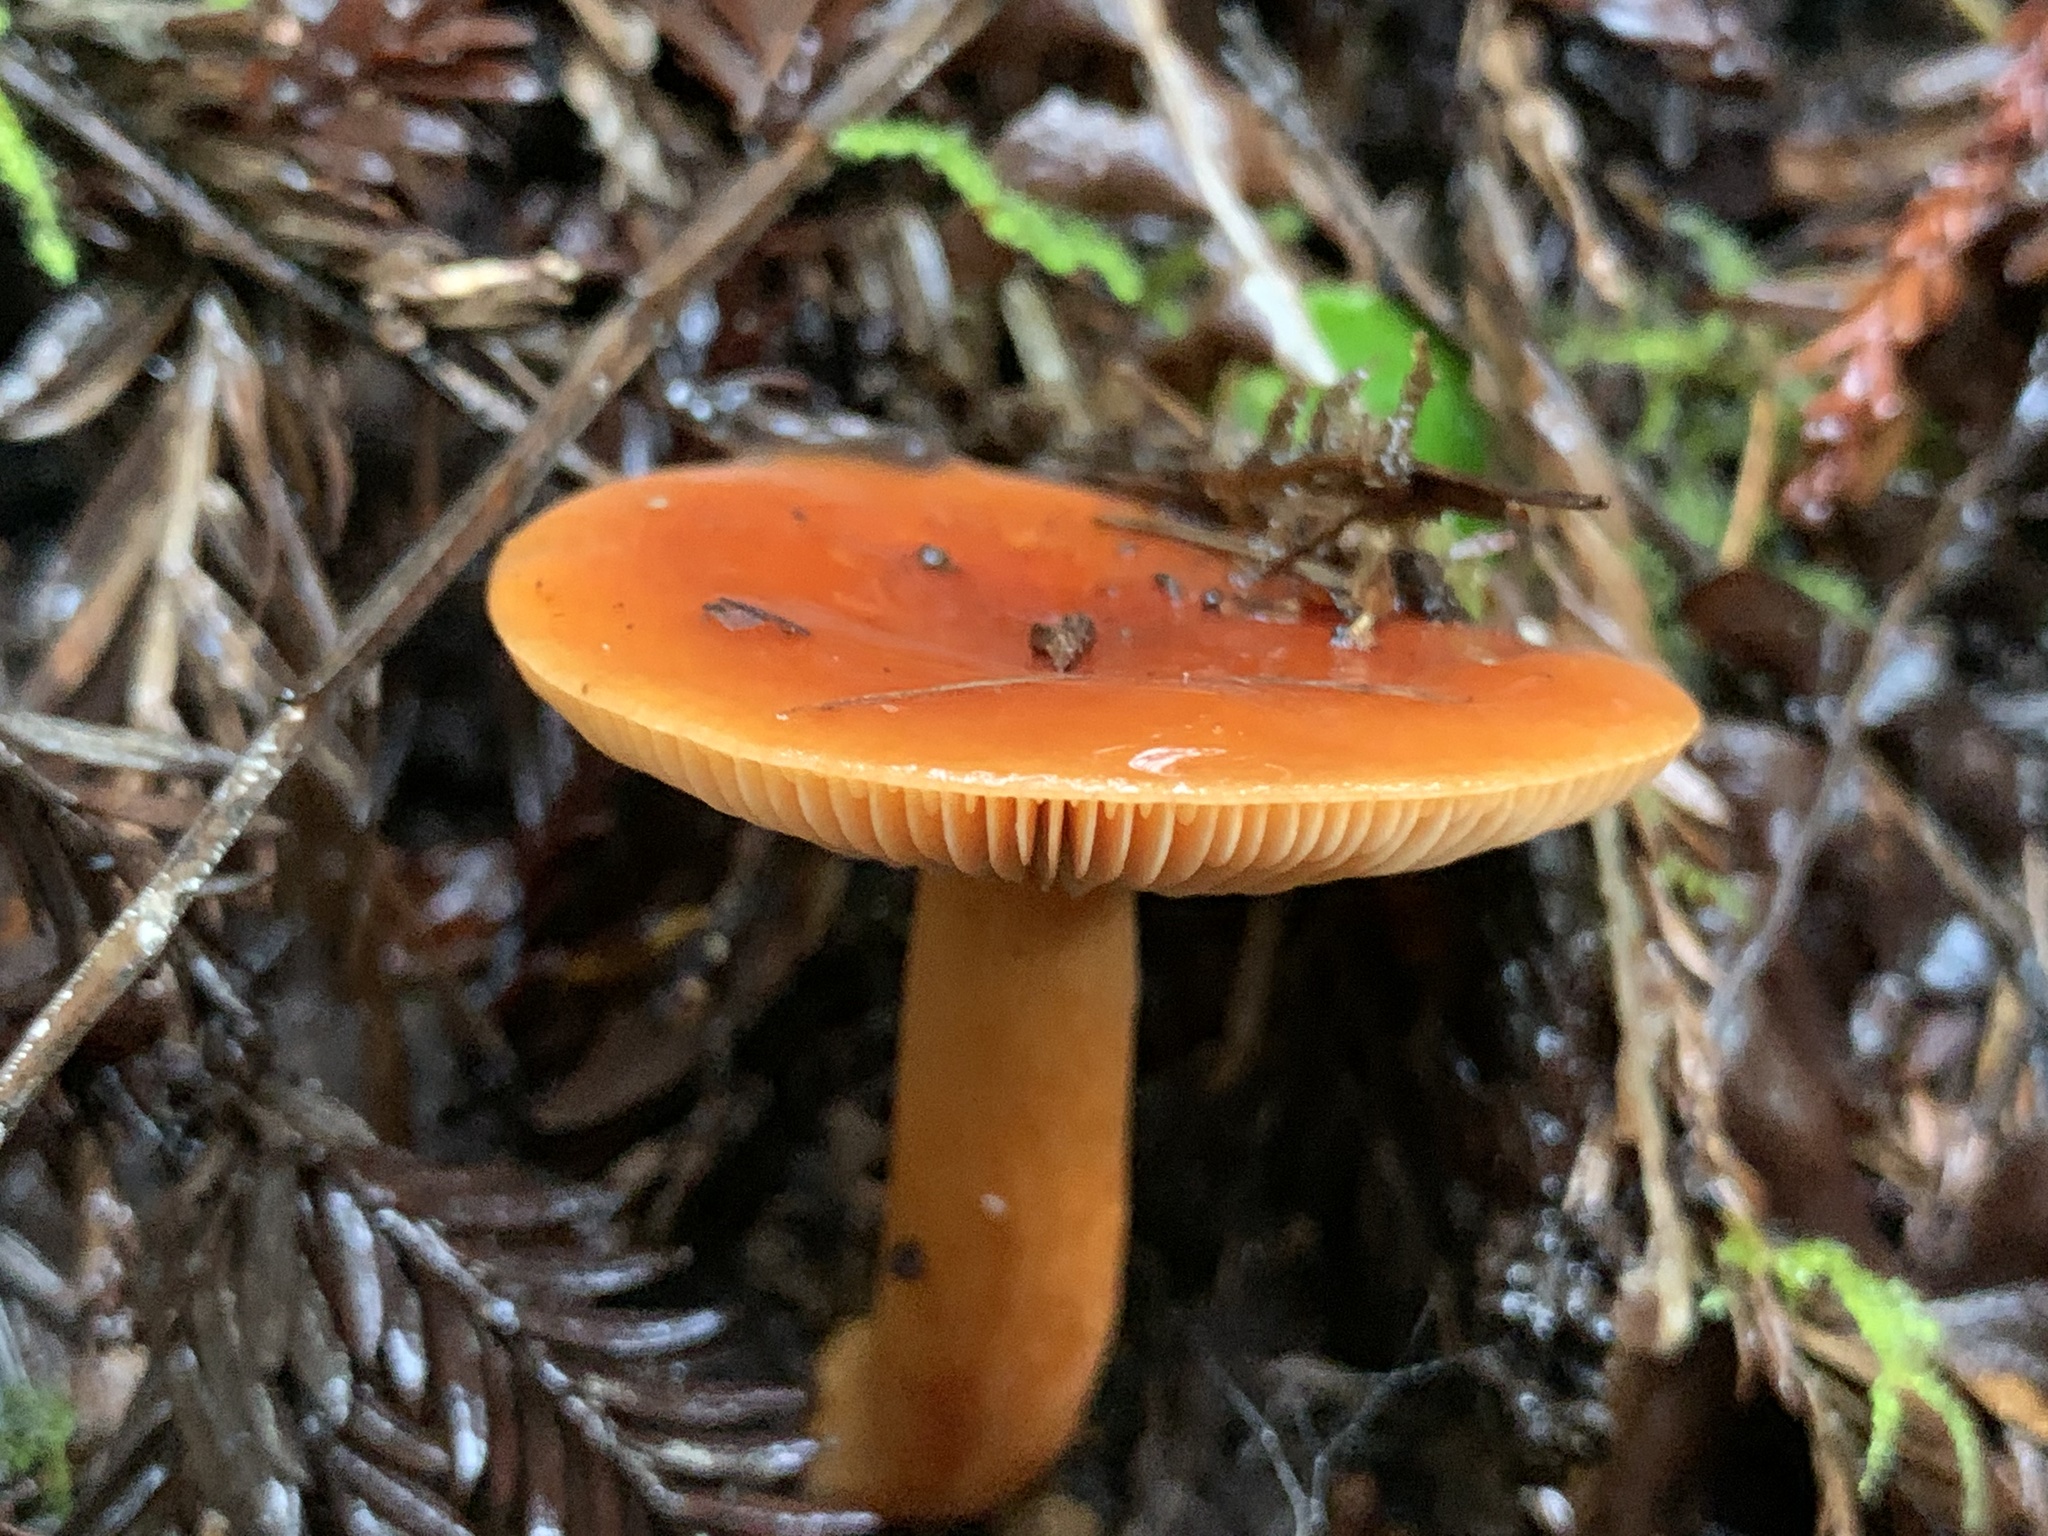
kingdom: Fungi
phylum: Basidiomycota
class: Agaricomycetes
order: Russulales
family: Russulaceae
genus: Lactarius
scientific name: Lactarius rubidus
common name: Candy cap
